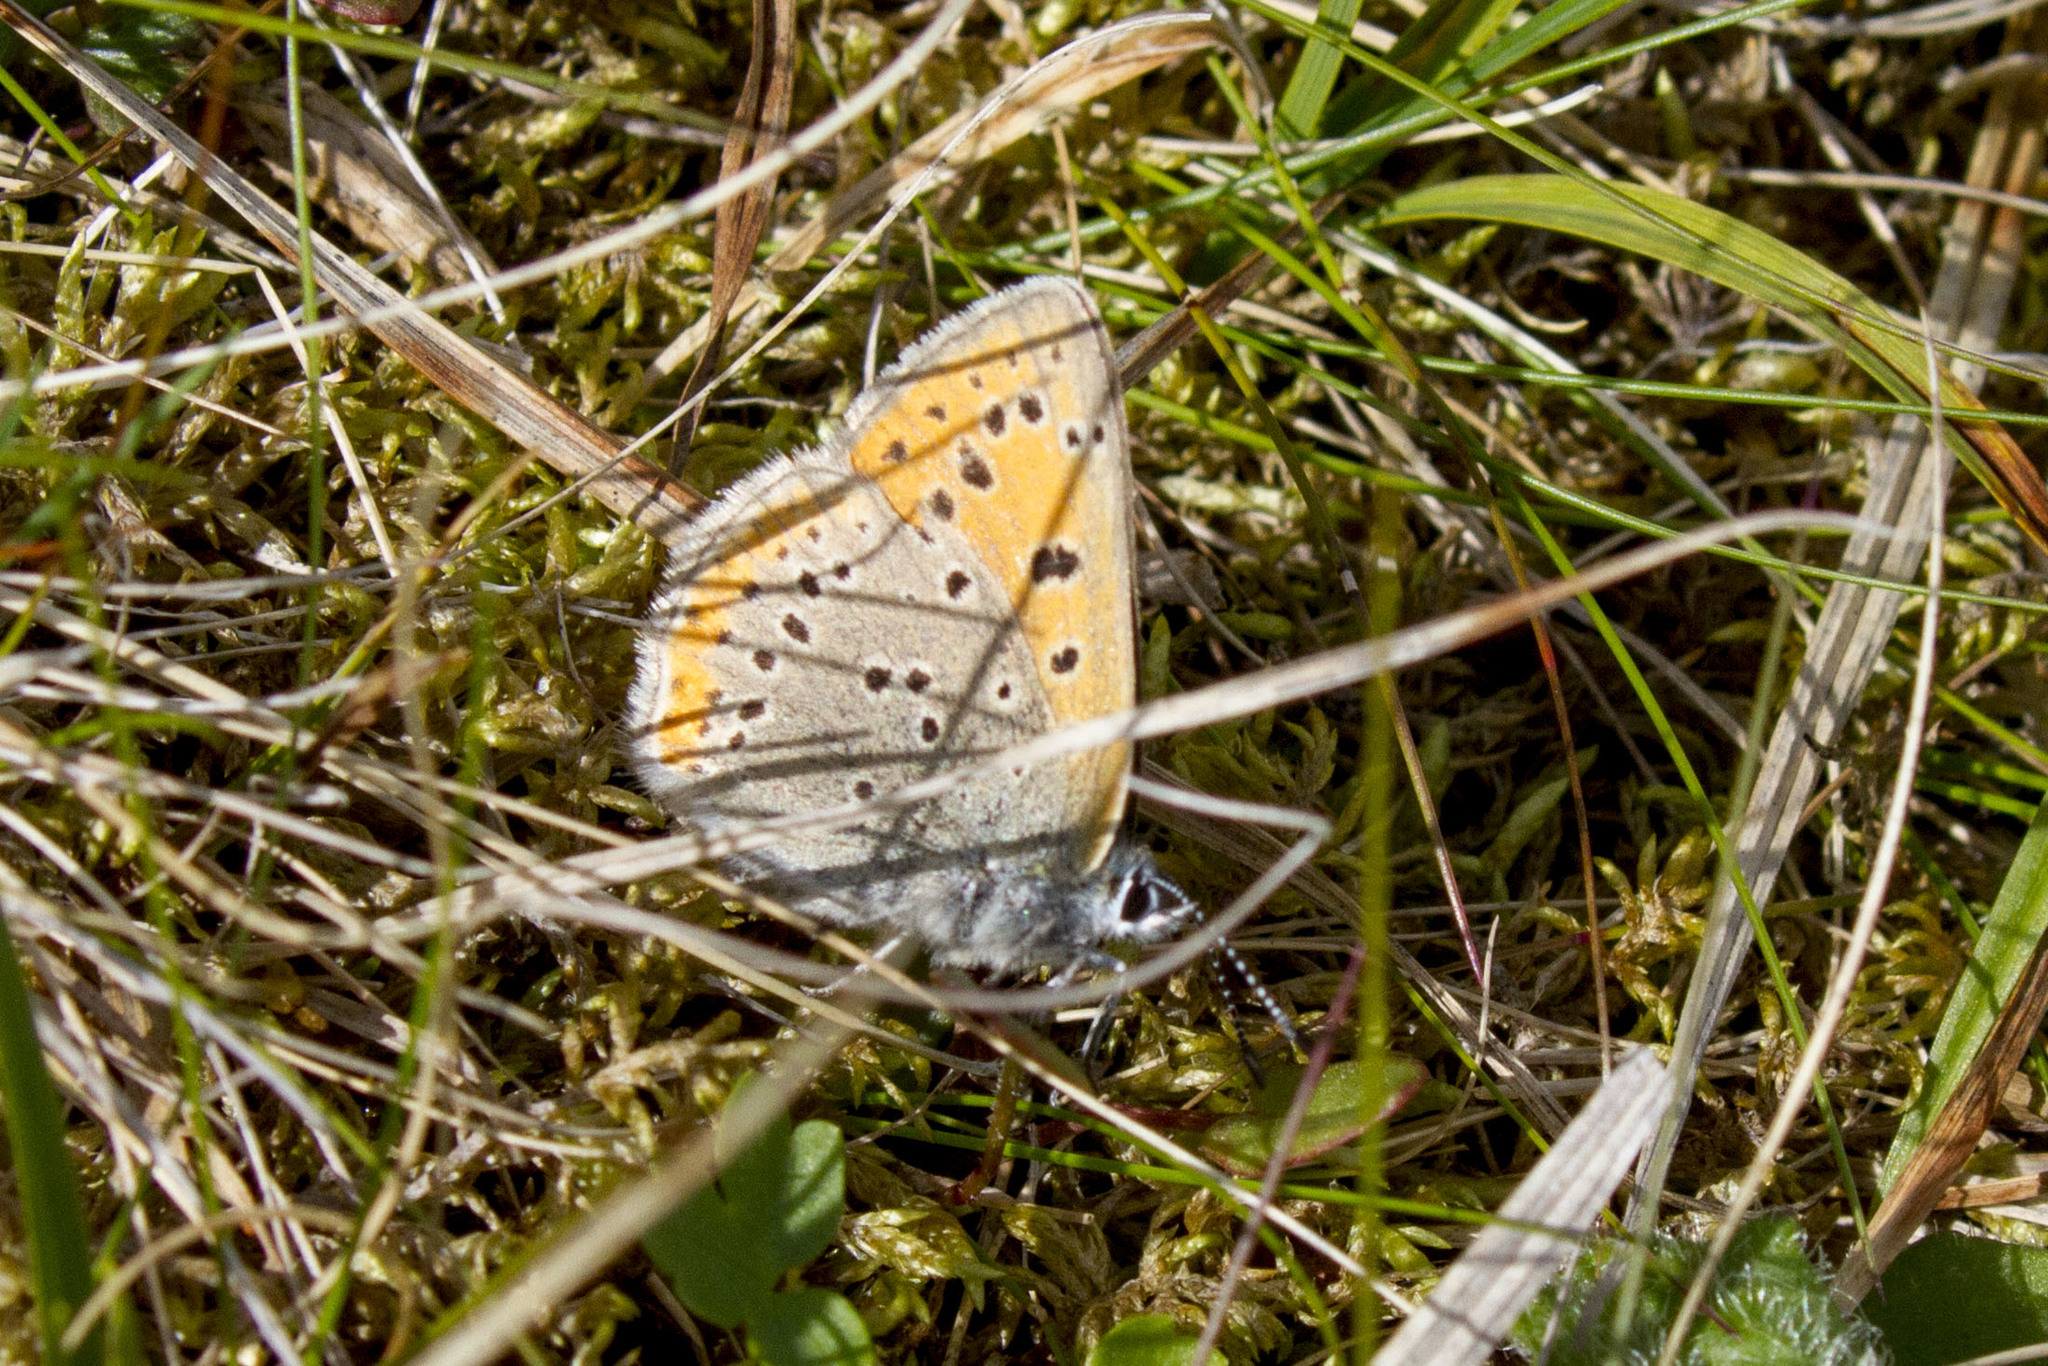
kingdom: Animalia
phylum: Arthropoda
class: Insecta
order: Lepidoptera
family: Lycaenidae
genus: Palaeochrysophanus
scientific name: Palaeochrysophanus hippothoe
